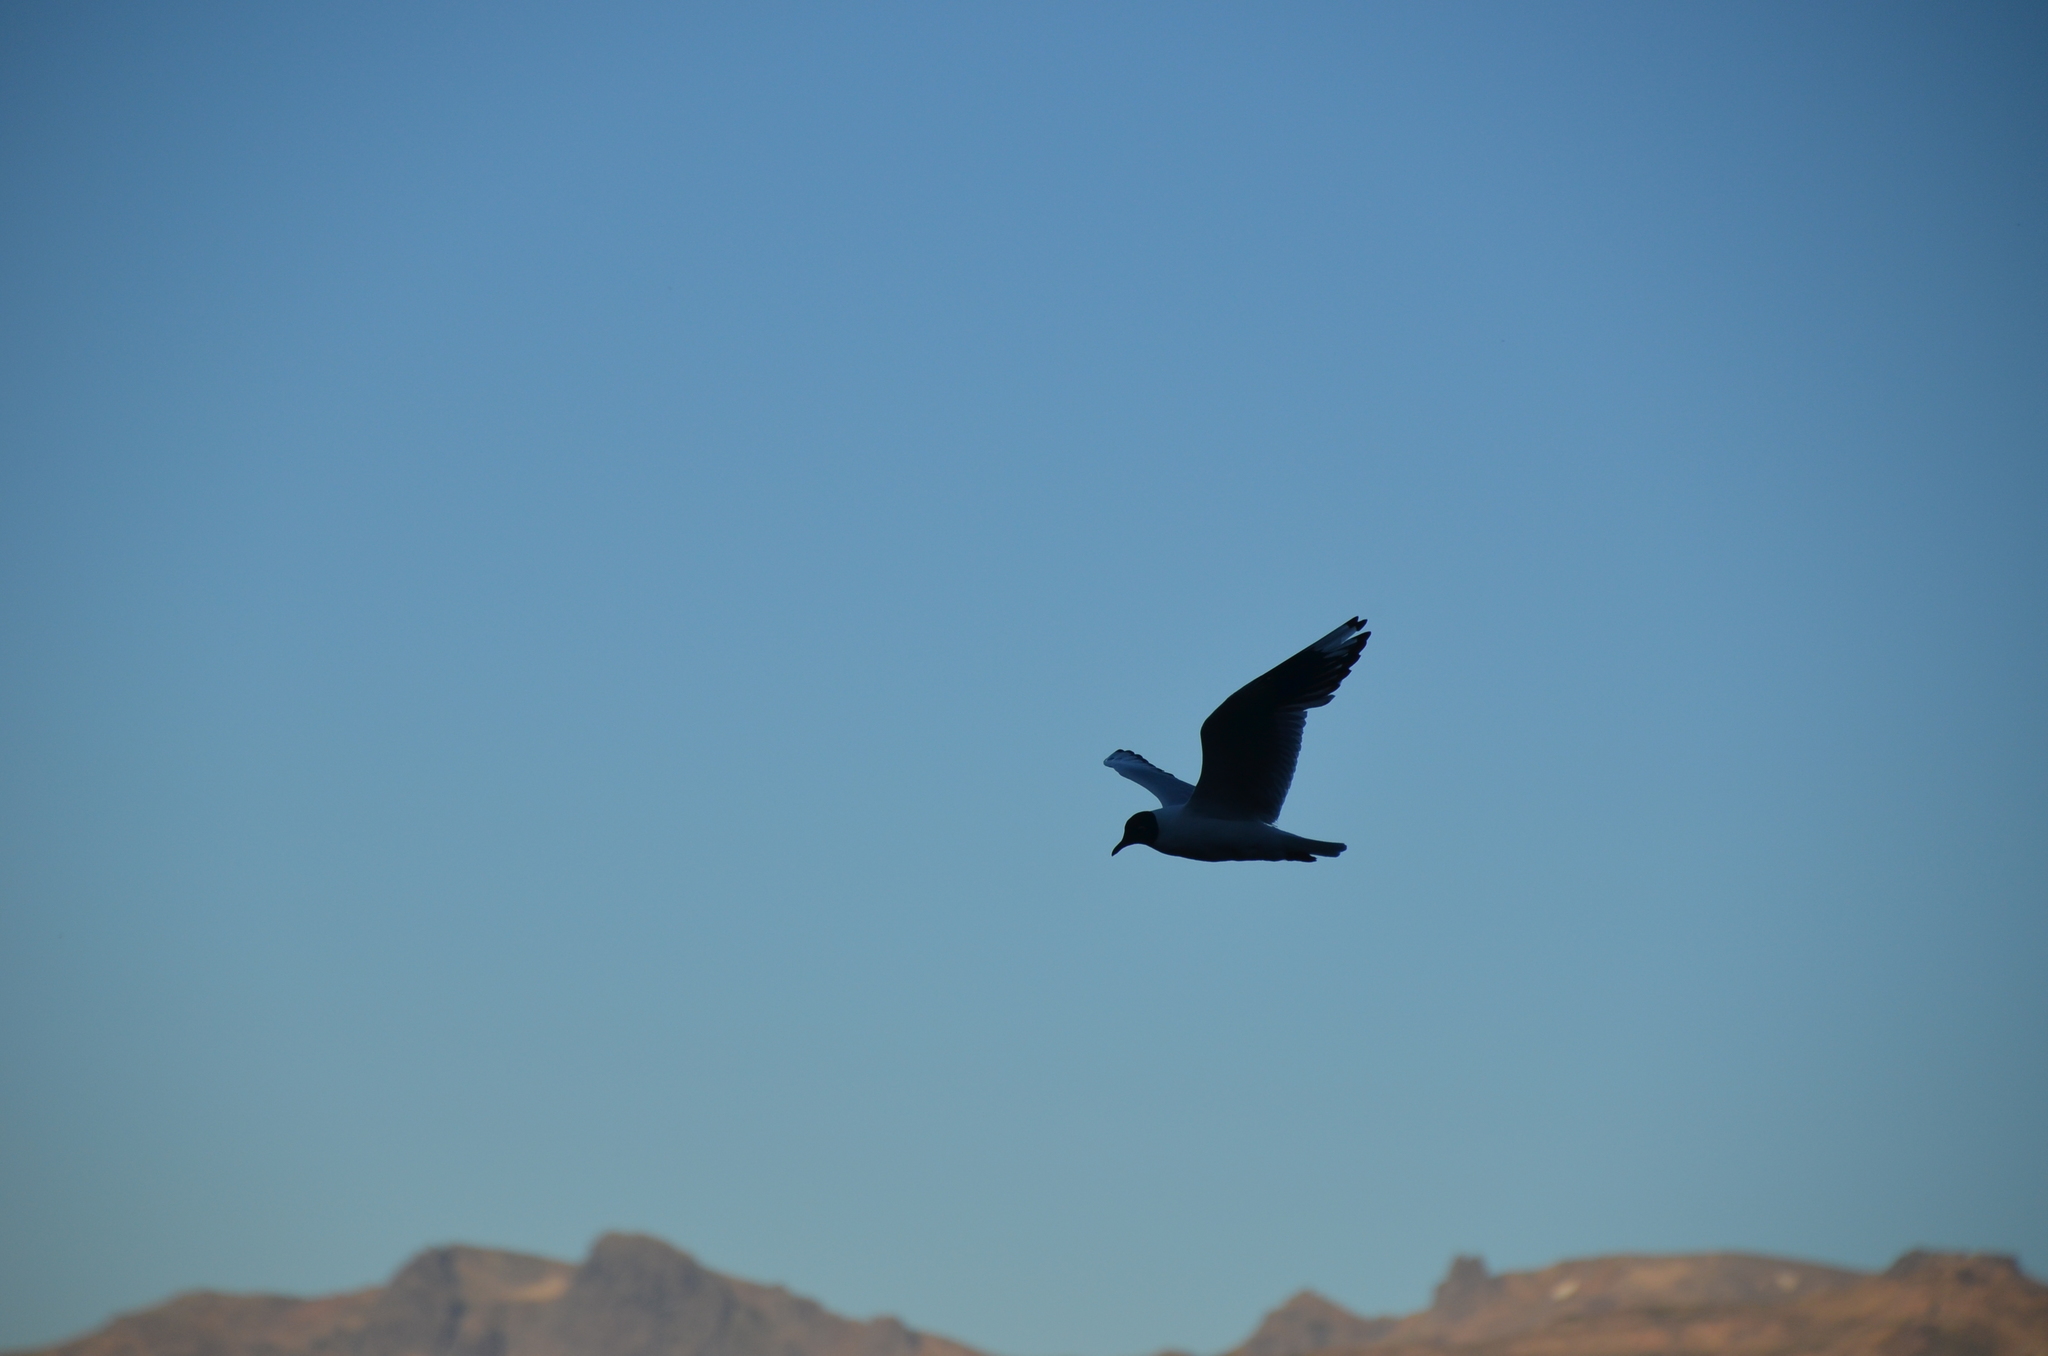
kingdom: Animalia
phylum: Chordata
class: Aves
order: Charadriiformes
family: Laridae
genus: Chroicocephalus
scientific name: Chroicocephalus serranus
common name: Andean gull
